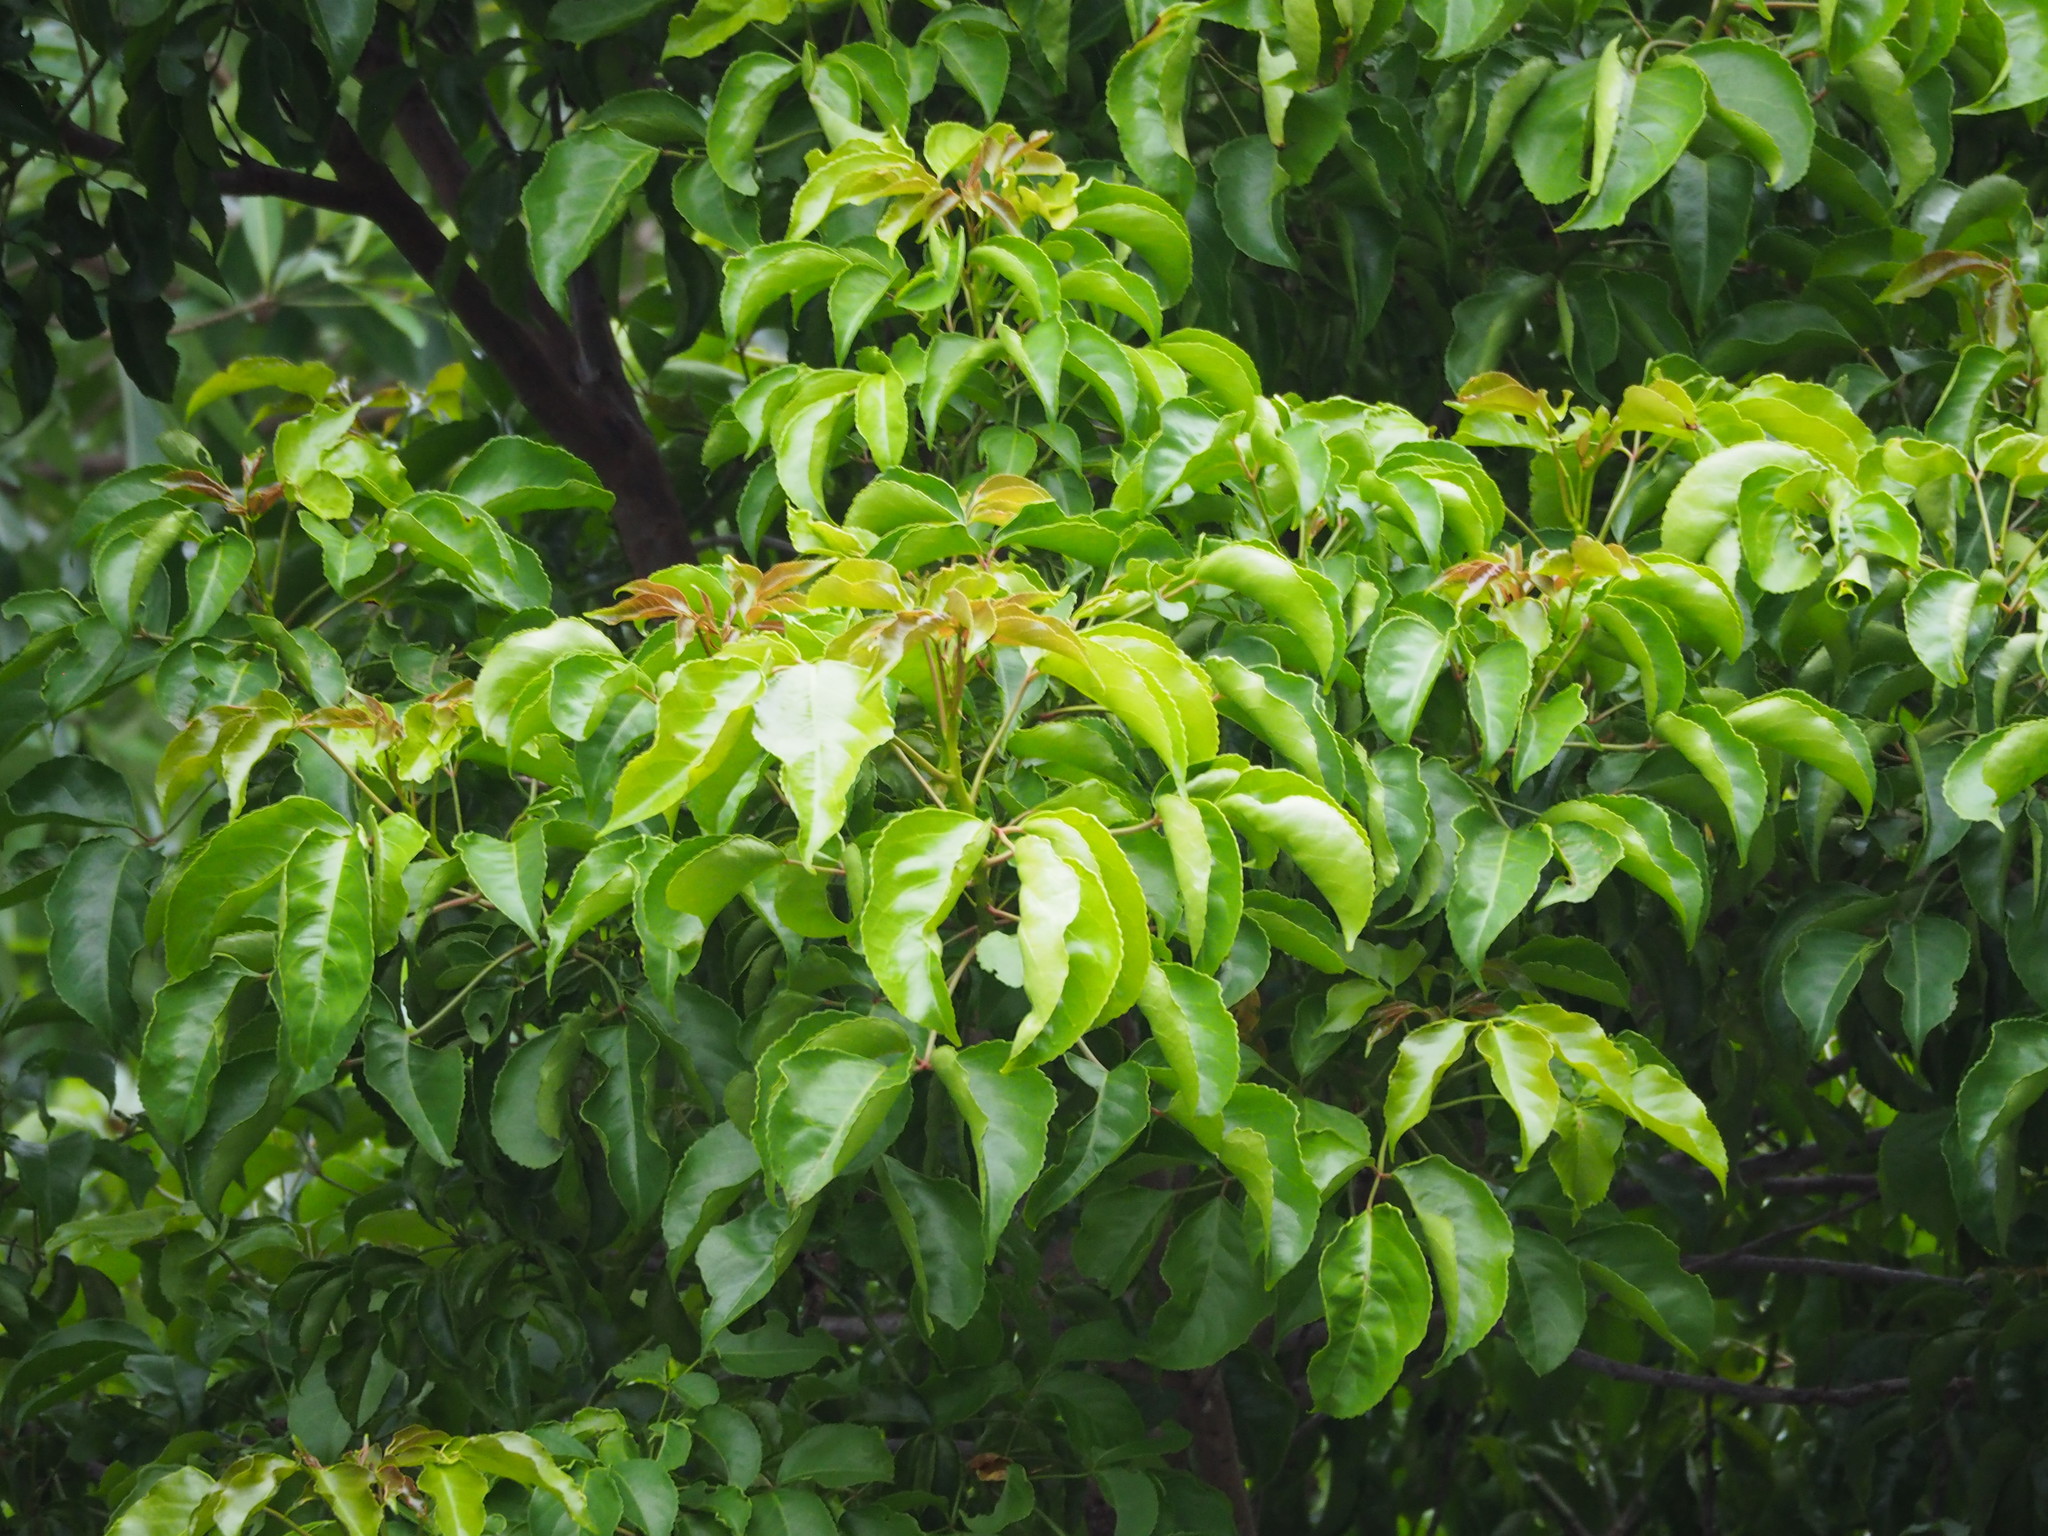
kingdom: Plantae
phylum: Tracheophyta
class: Magnoliopsida
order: Malpighiales
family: Phyllanthaceae
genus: Bischofia
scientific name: Bischofia javanica
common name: Javanese bishopwood
